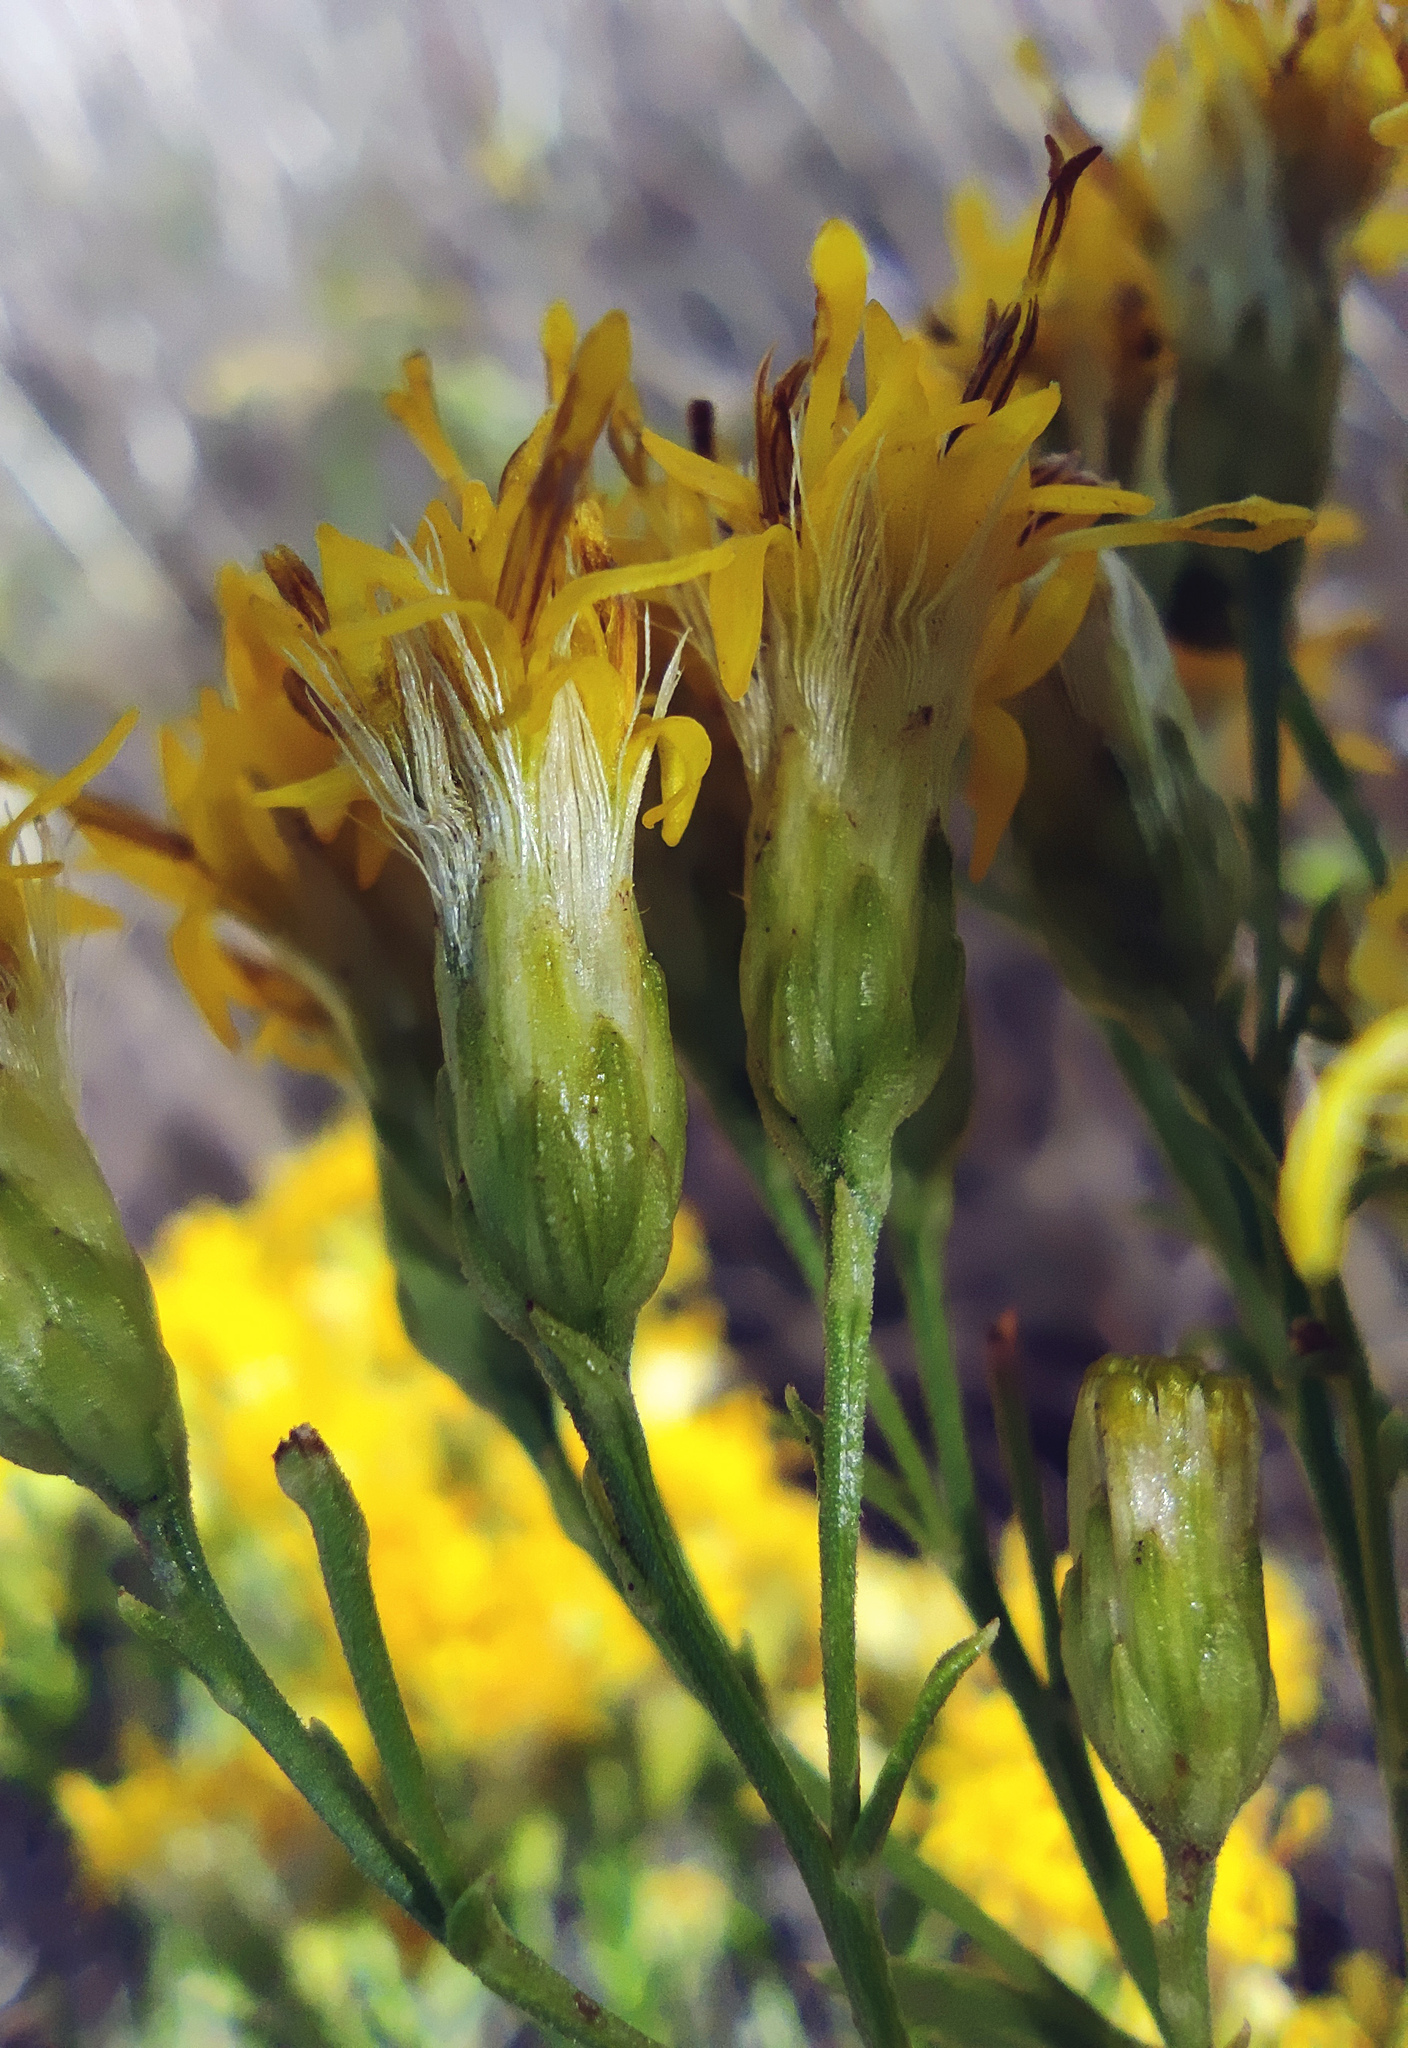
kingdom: Plantae
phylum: Tracheophyta
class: Magnoliopsida
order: Asterales
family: Asteraceae
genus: Galatella
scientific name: Galatella biflora
